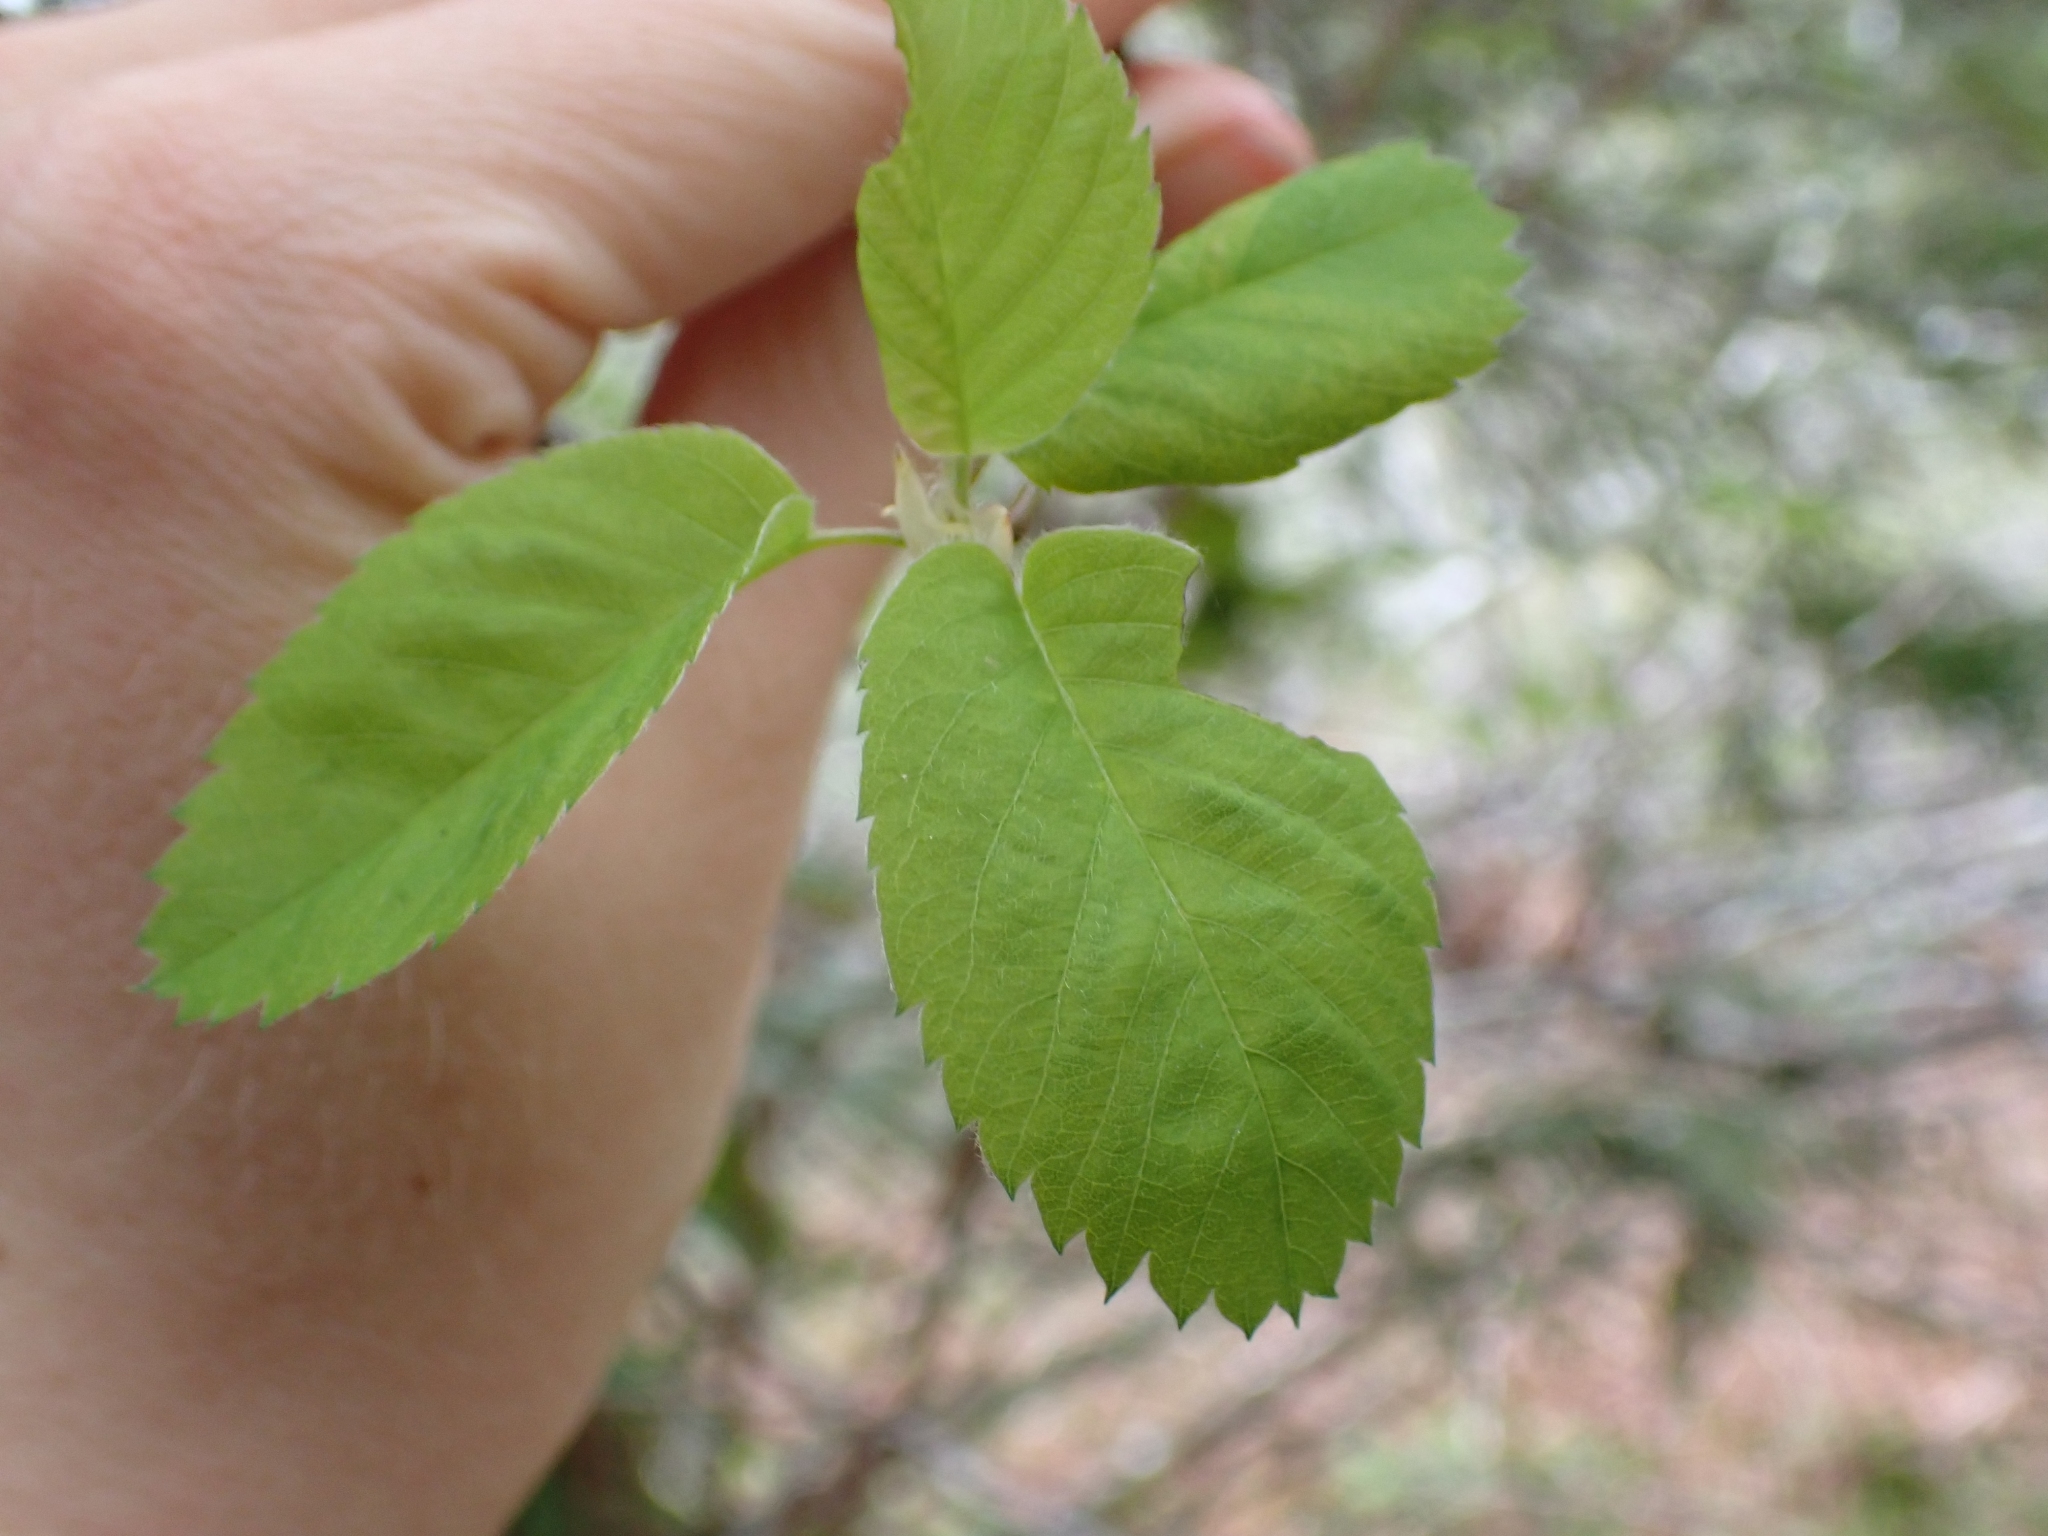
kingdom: Plantae
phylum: Tracheophyta
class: Magnoliopsida
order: Rosales
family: Rosaceae
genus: Amelanchier
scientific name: Amelanchier alnifolia
